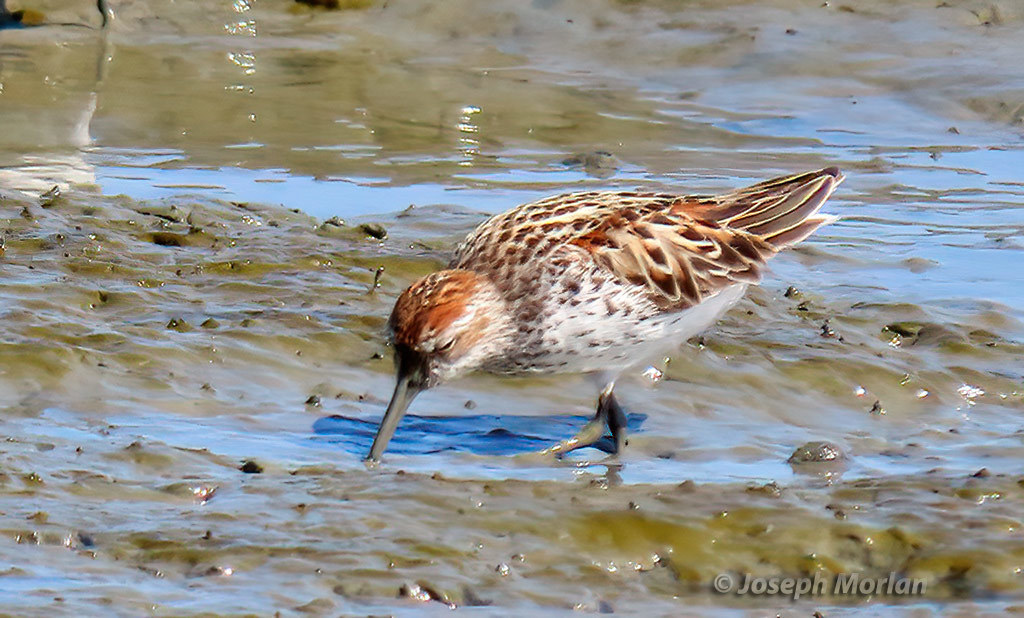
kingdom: Animalia
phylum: Chordata
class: Aves
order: Charadriiformes
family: Scolopacidae
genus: Calidris
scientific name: Calidris mauri
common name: Western sandpiper
